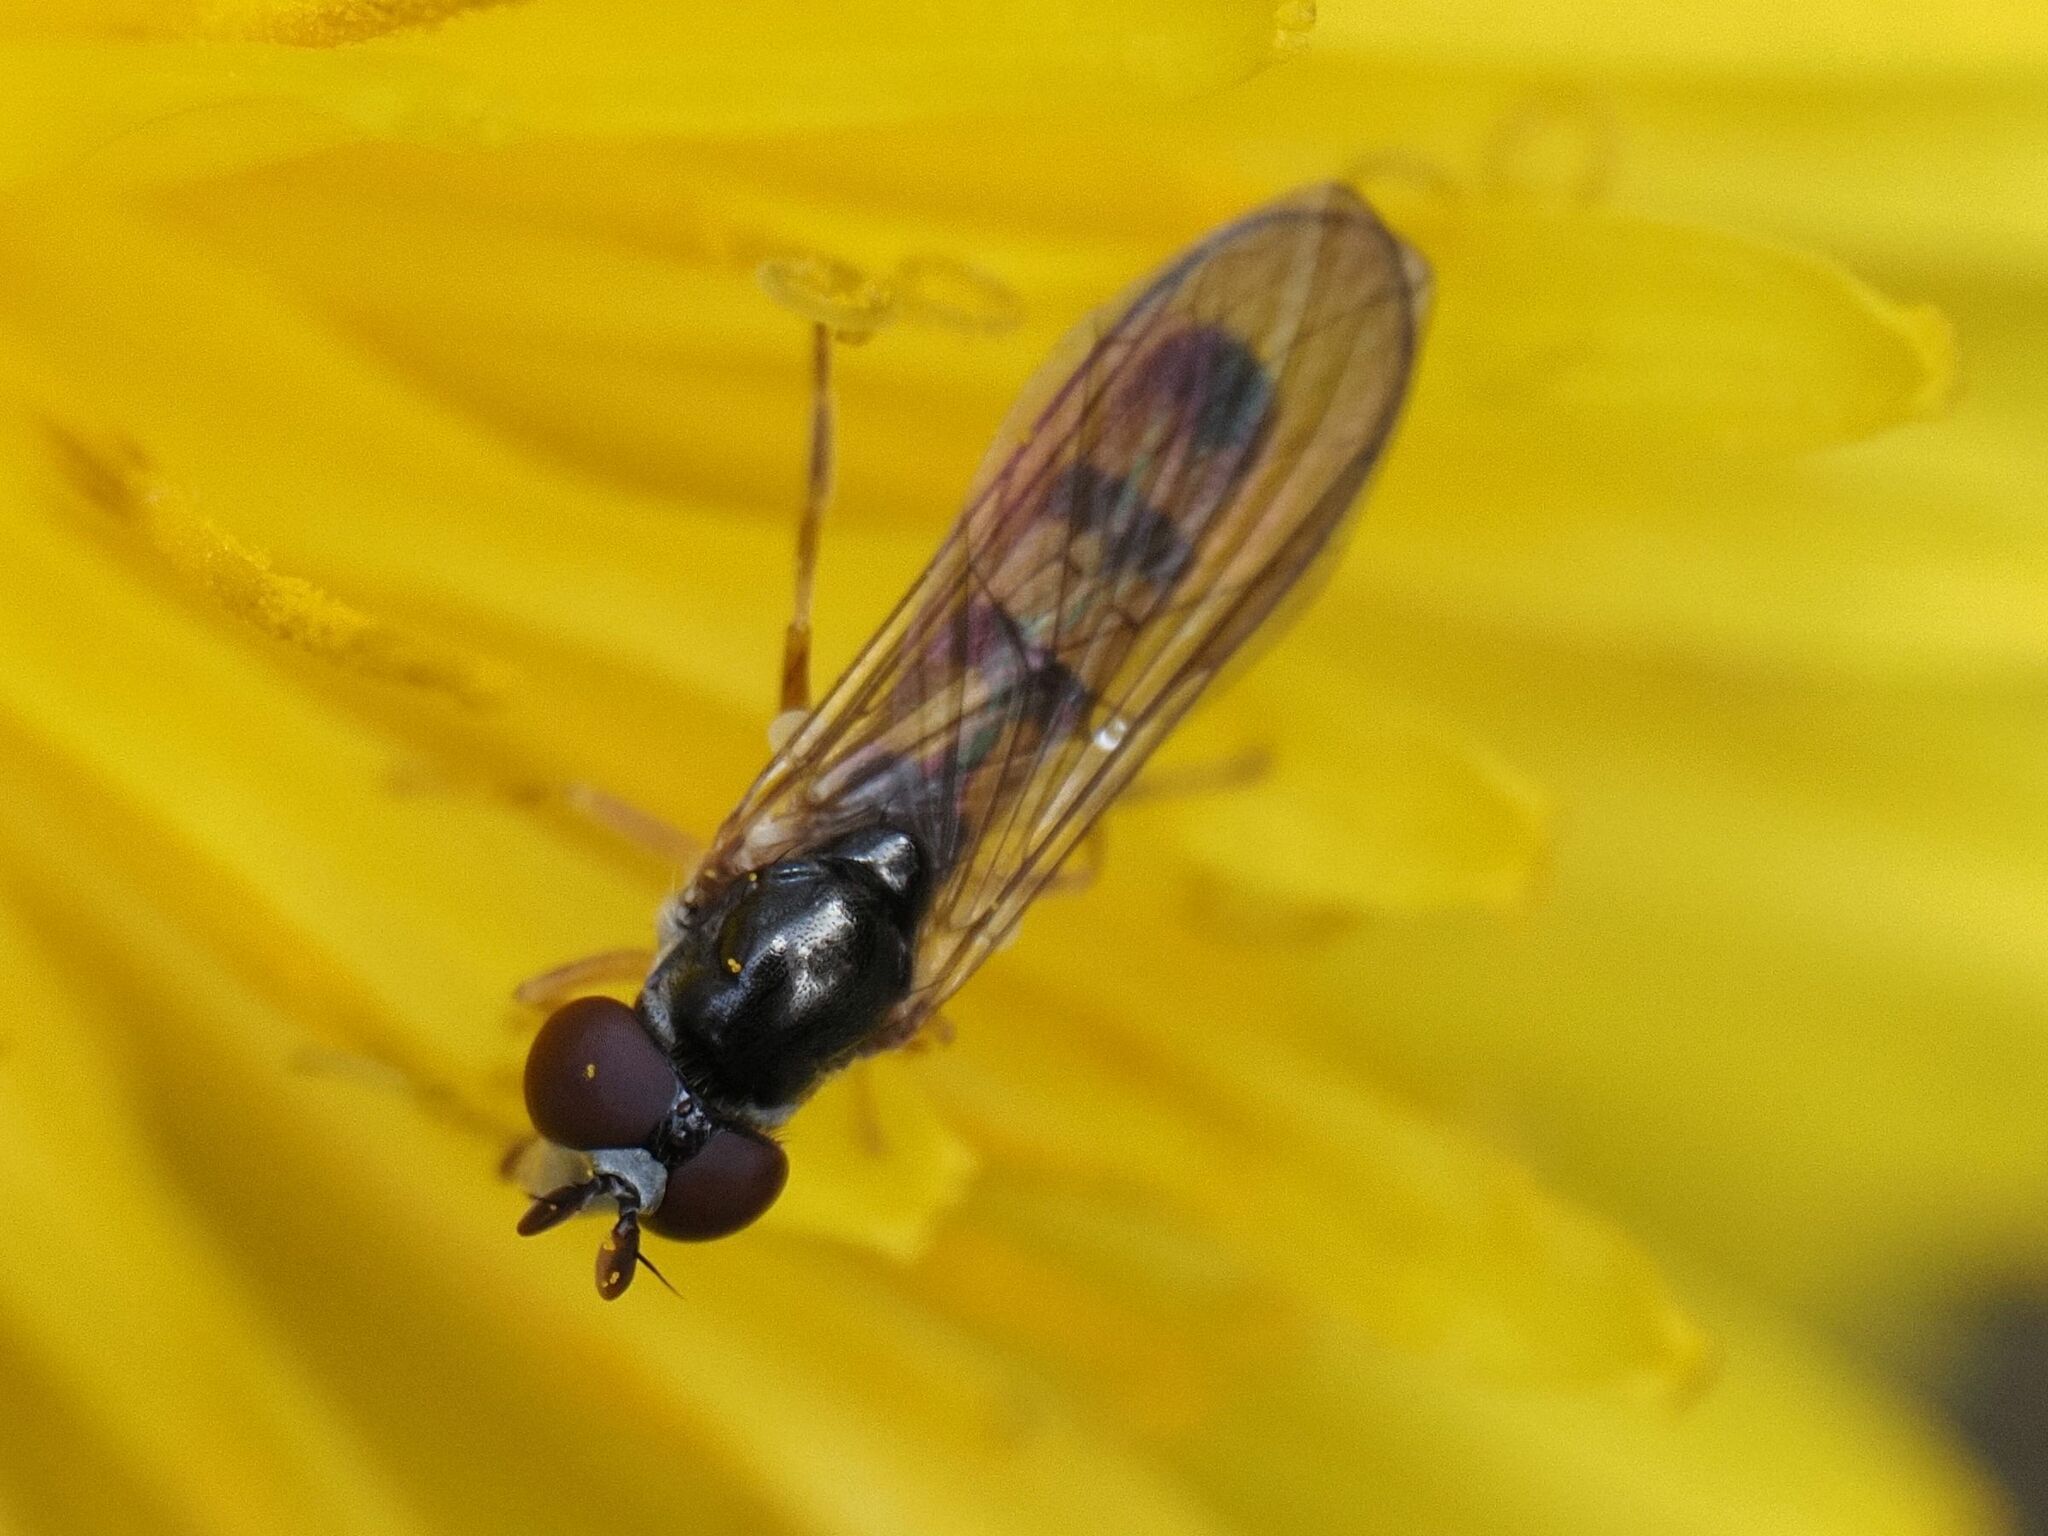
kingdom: Animalia
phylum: Arthropoda
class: Insecta
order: Diptera
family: Syrphidae
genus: Chamaesyrphus
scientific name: Chamaesyrphus scaevoides
